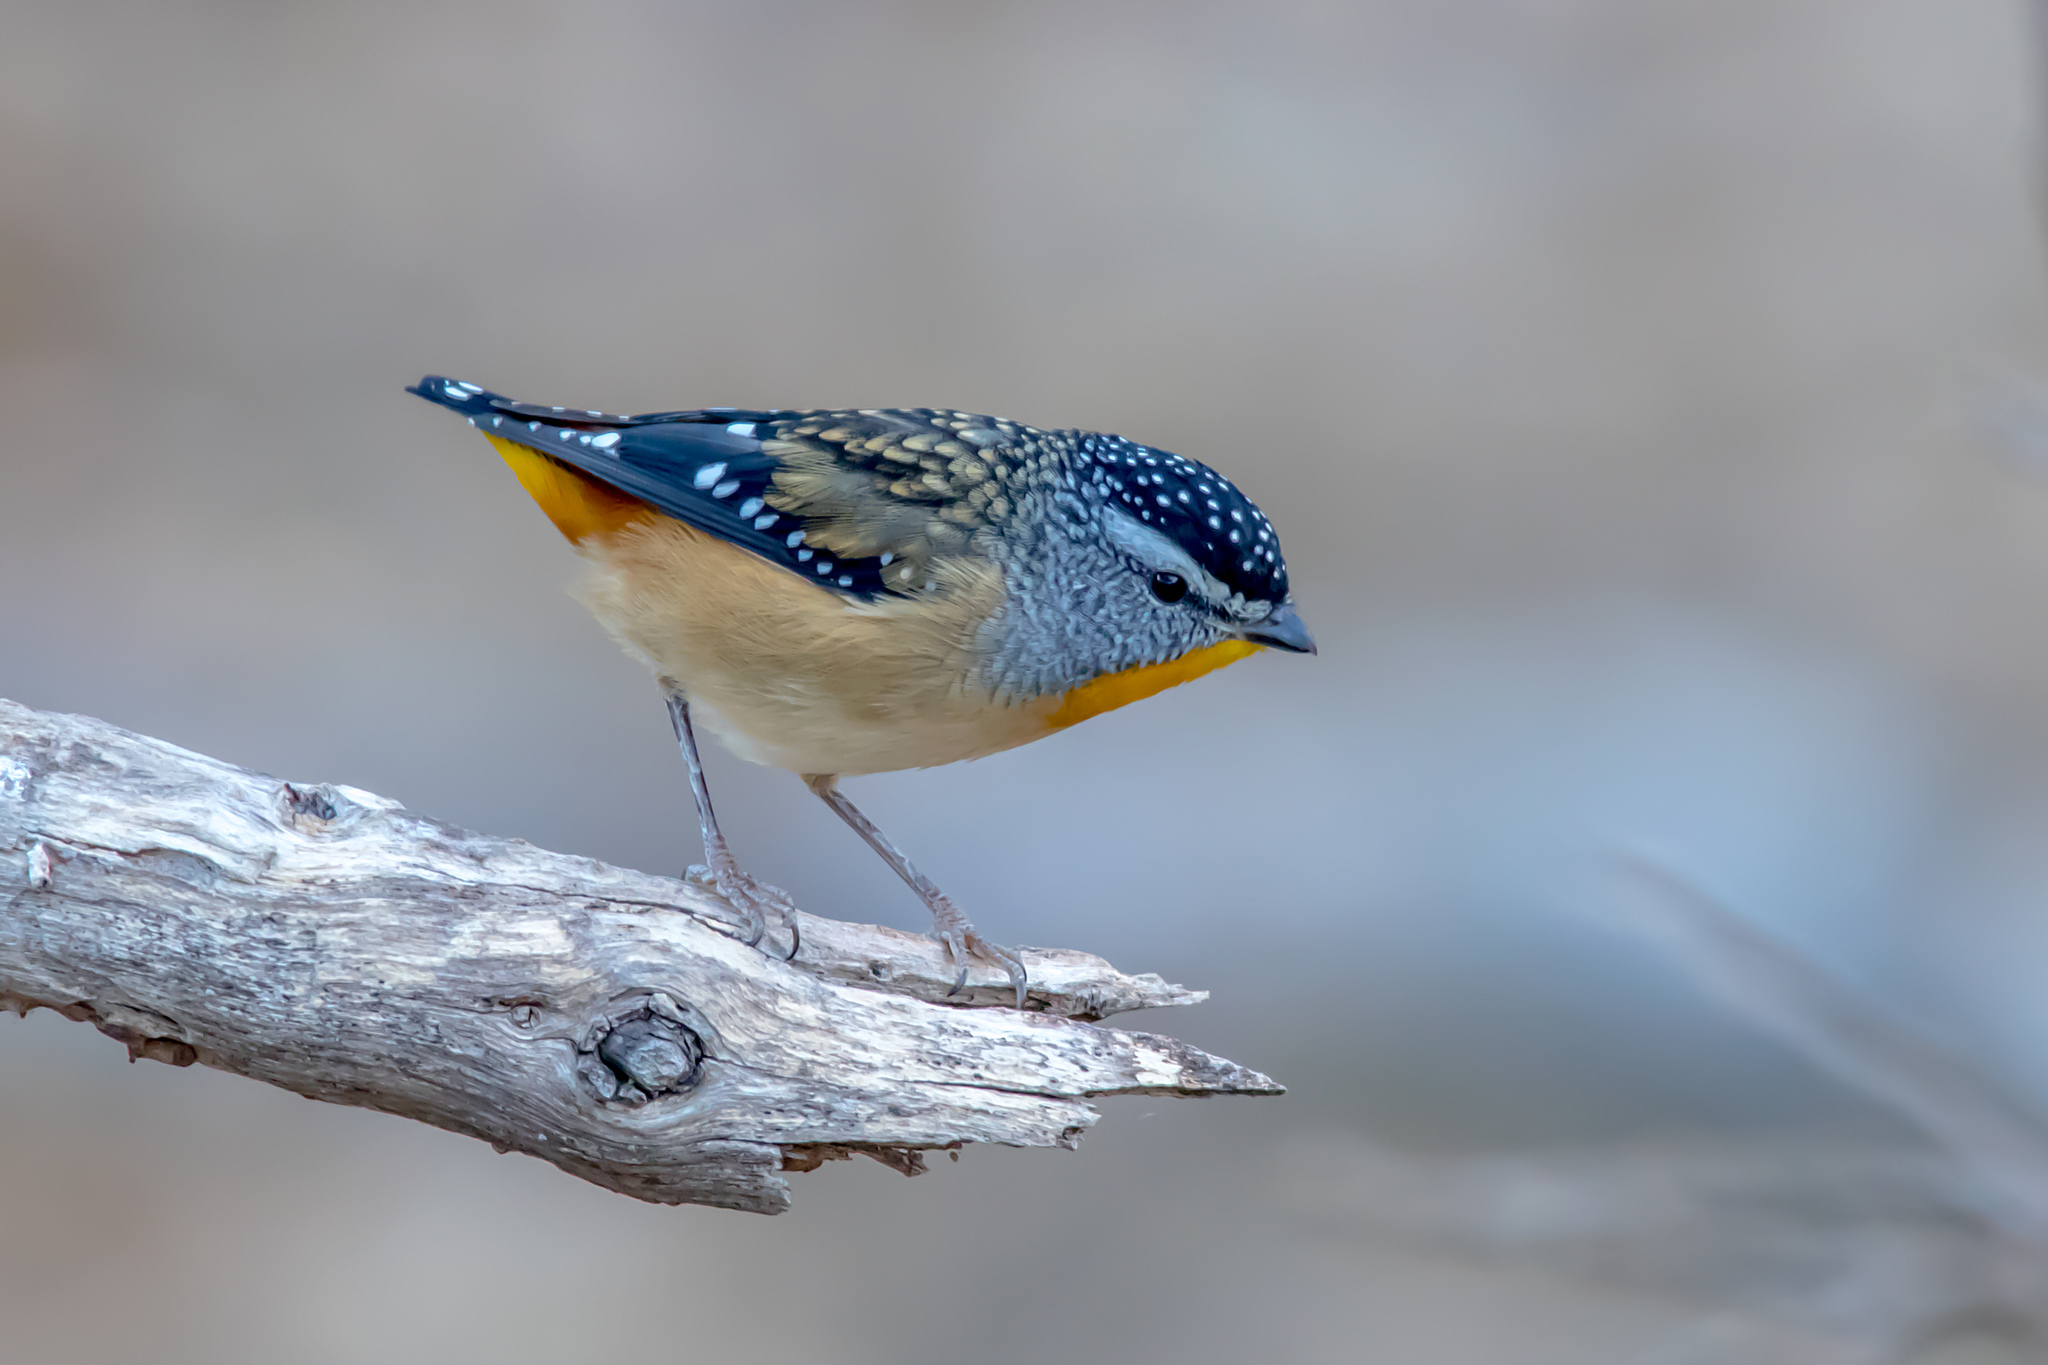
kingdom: Animalia
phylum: Chordata
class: Aves
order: Passeriformes
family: Pardalotidae
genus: Pardalotus
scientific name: Pardalotus punctatus
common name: Spotted pardalote
